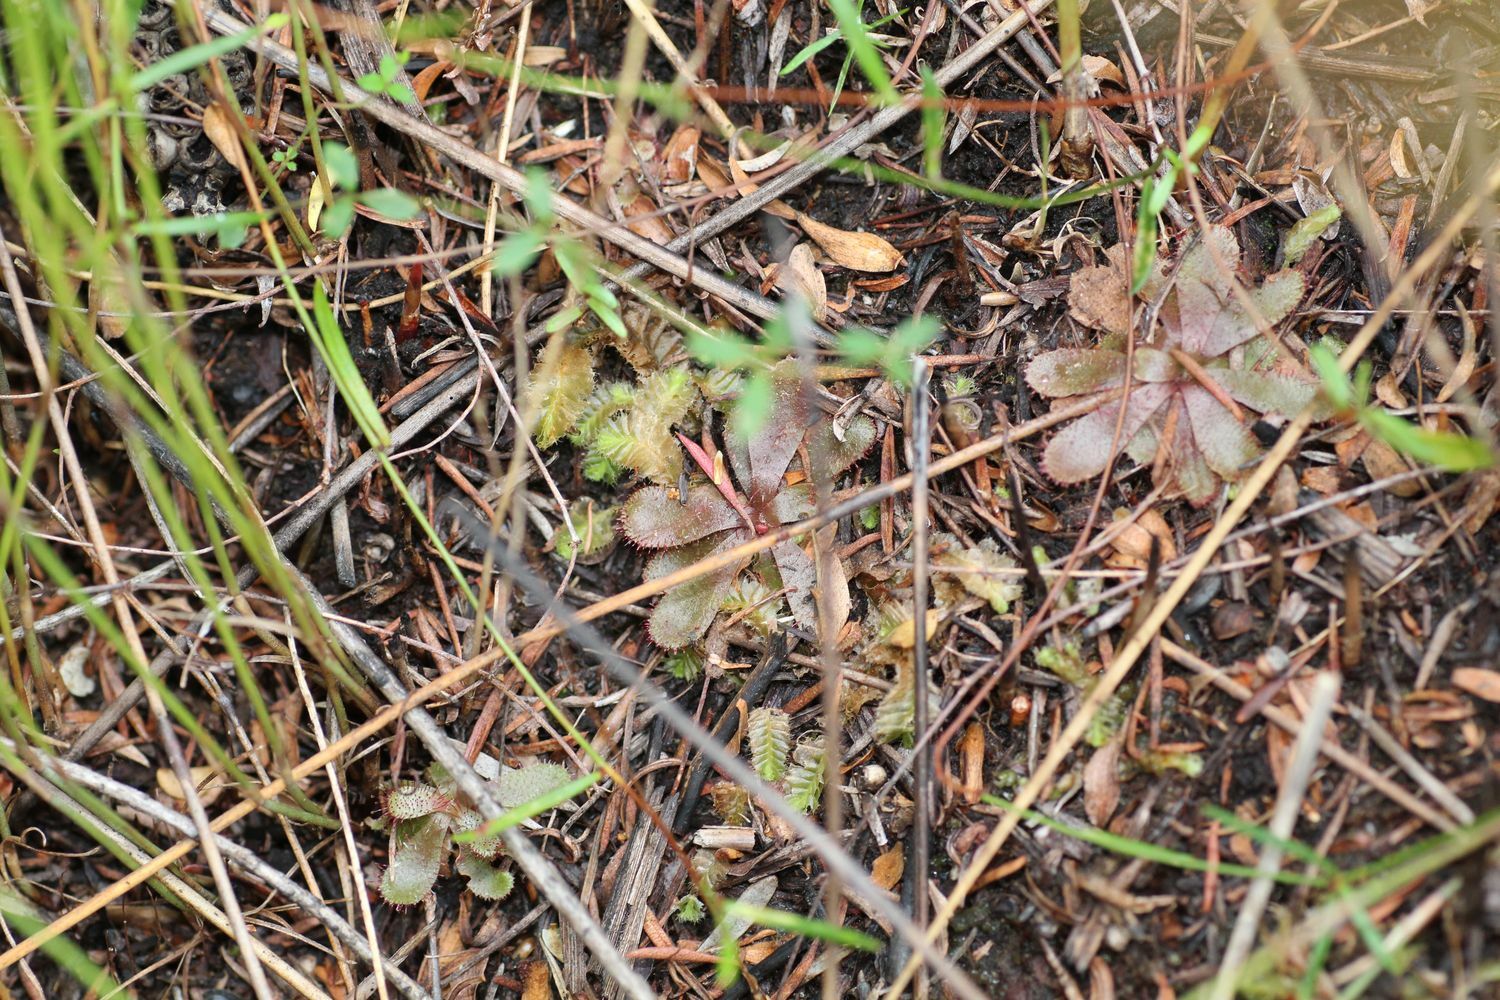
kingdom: Plantae
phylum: Tracheophyta
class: Magnoliopsida
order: Caryophyllales
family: Droseraceae
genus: Drosera
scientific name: Drosera hamiltonii
